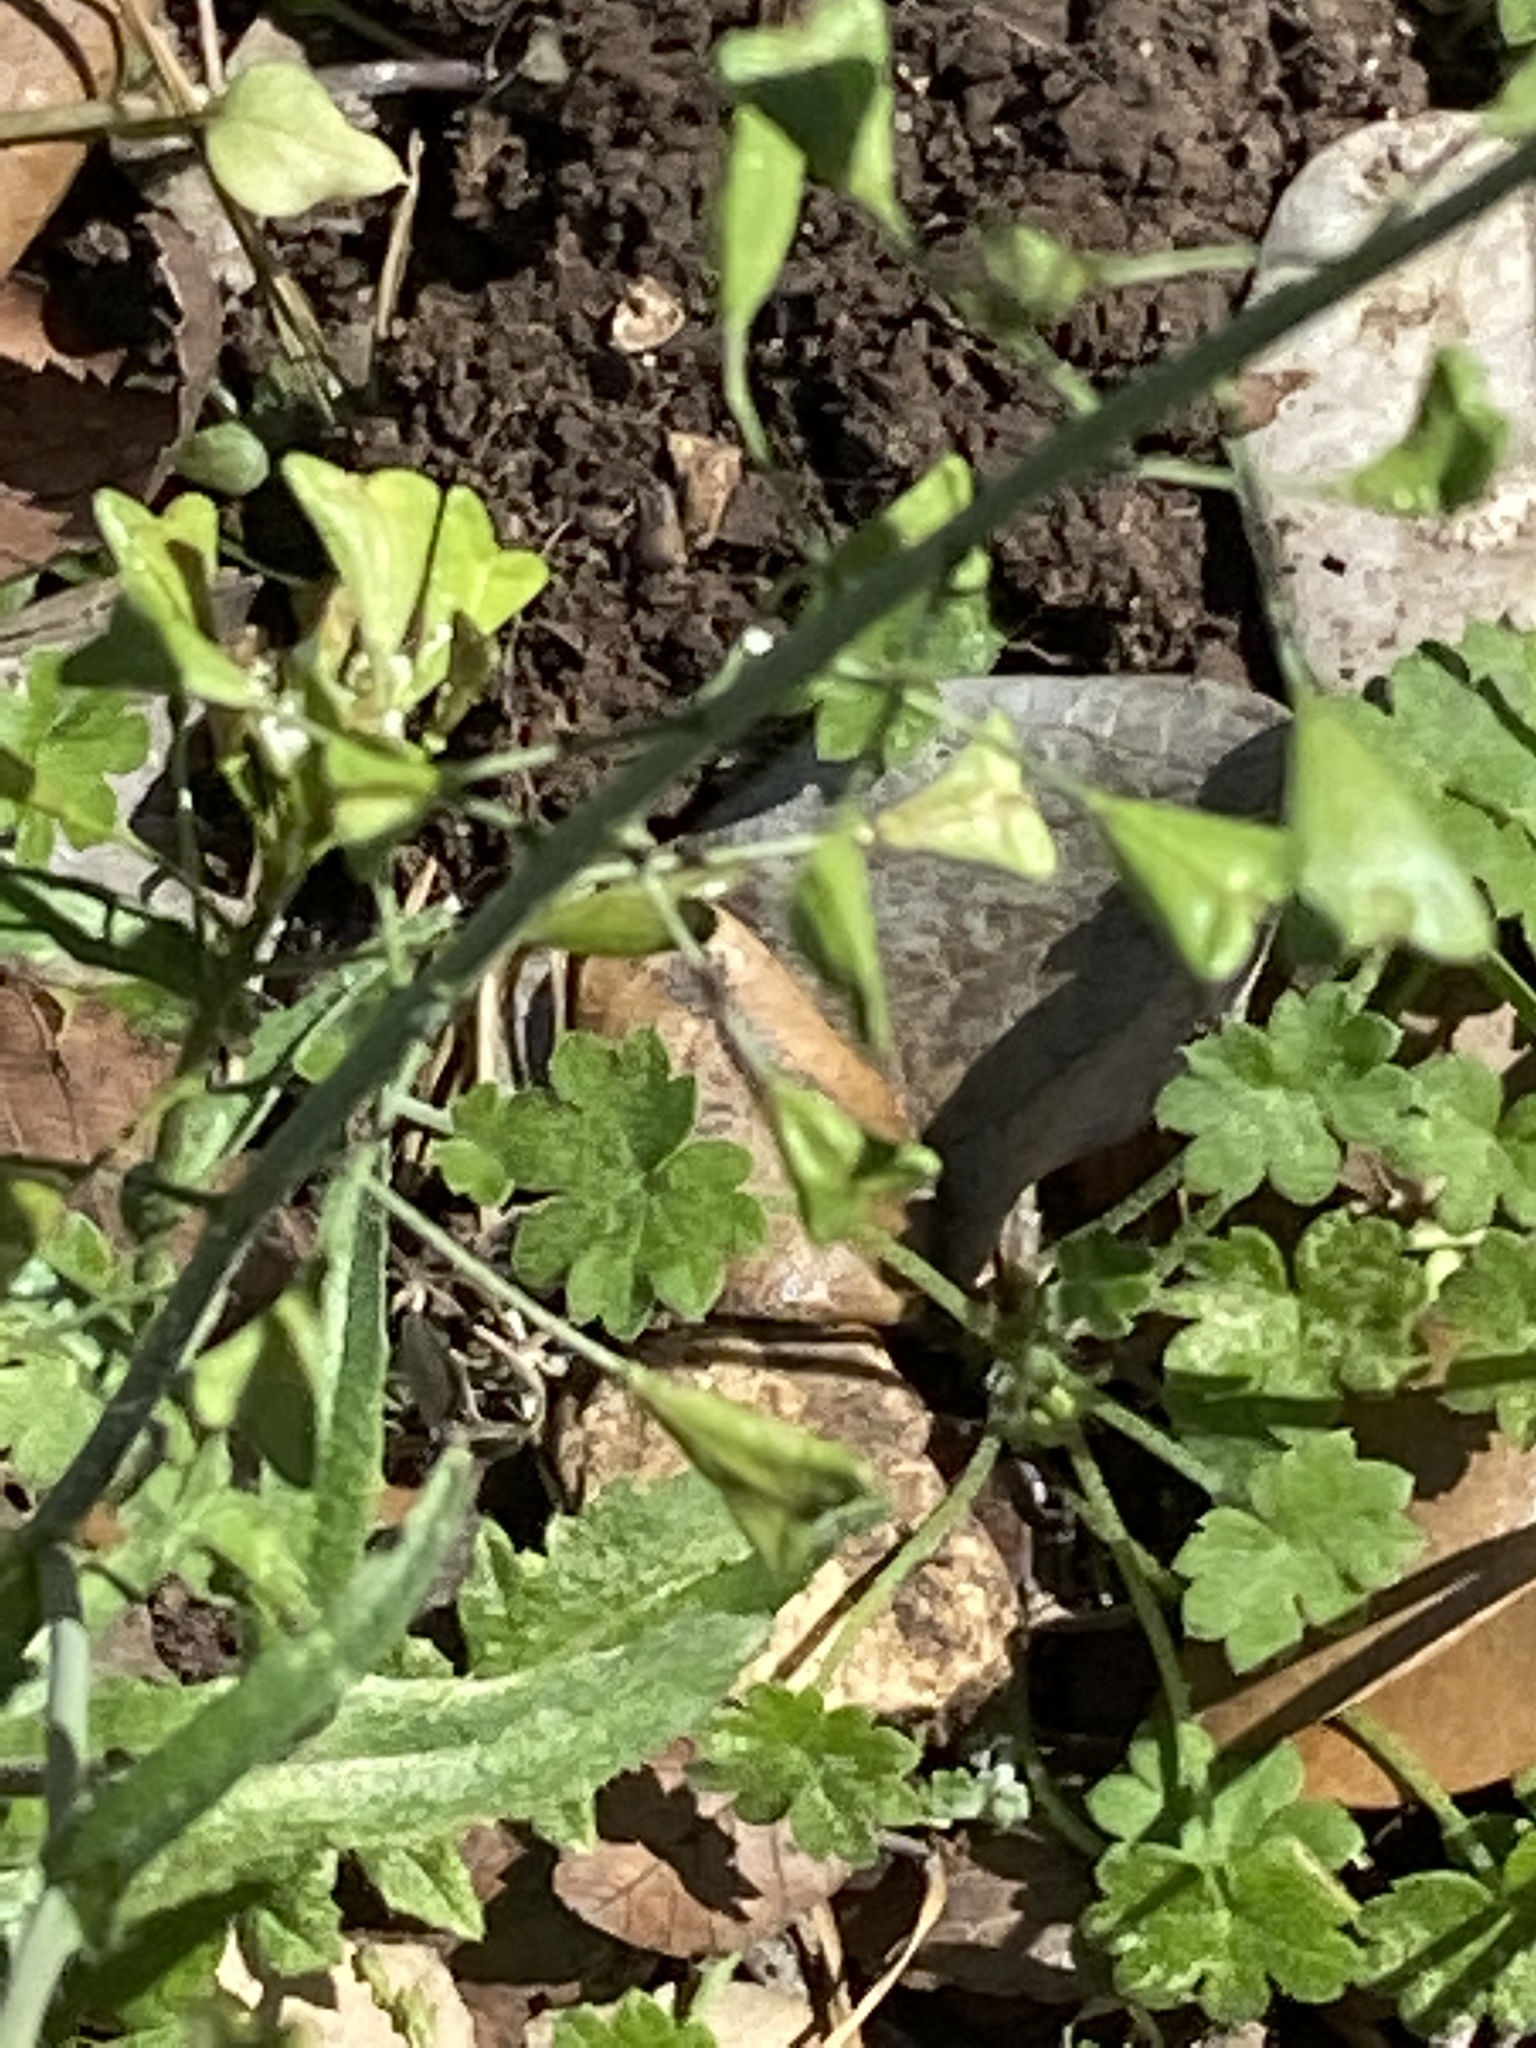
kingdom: Plantae
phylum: Tracheophyta
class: Magnoliopsida
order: Brassicales
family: Brassicaceae
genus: Capsella
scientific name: Capsella bursa-pastoris
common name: Shepherd's purse
